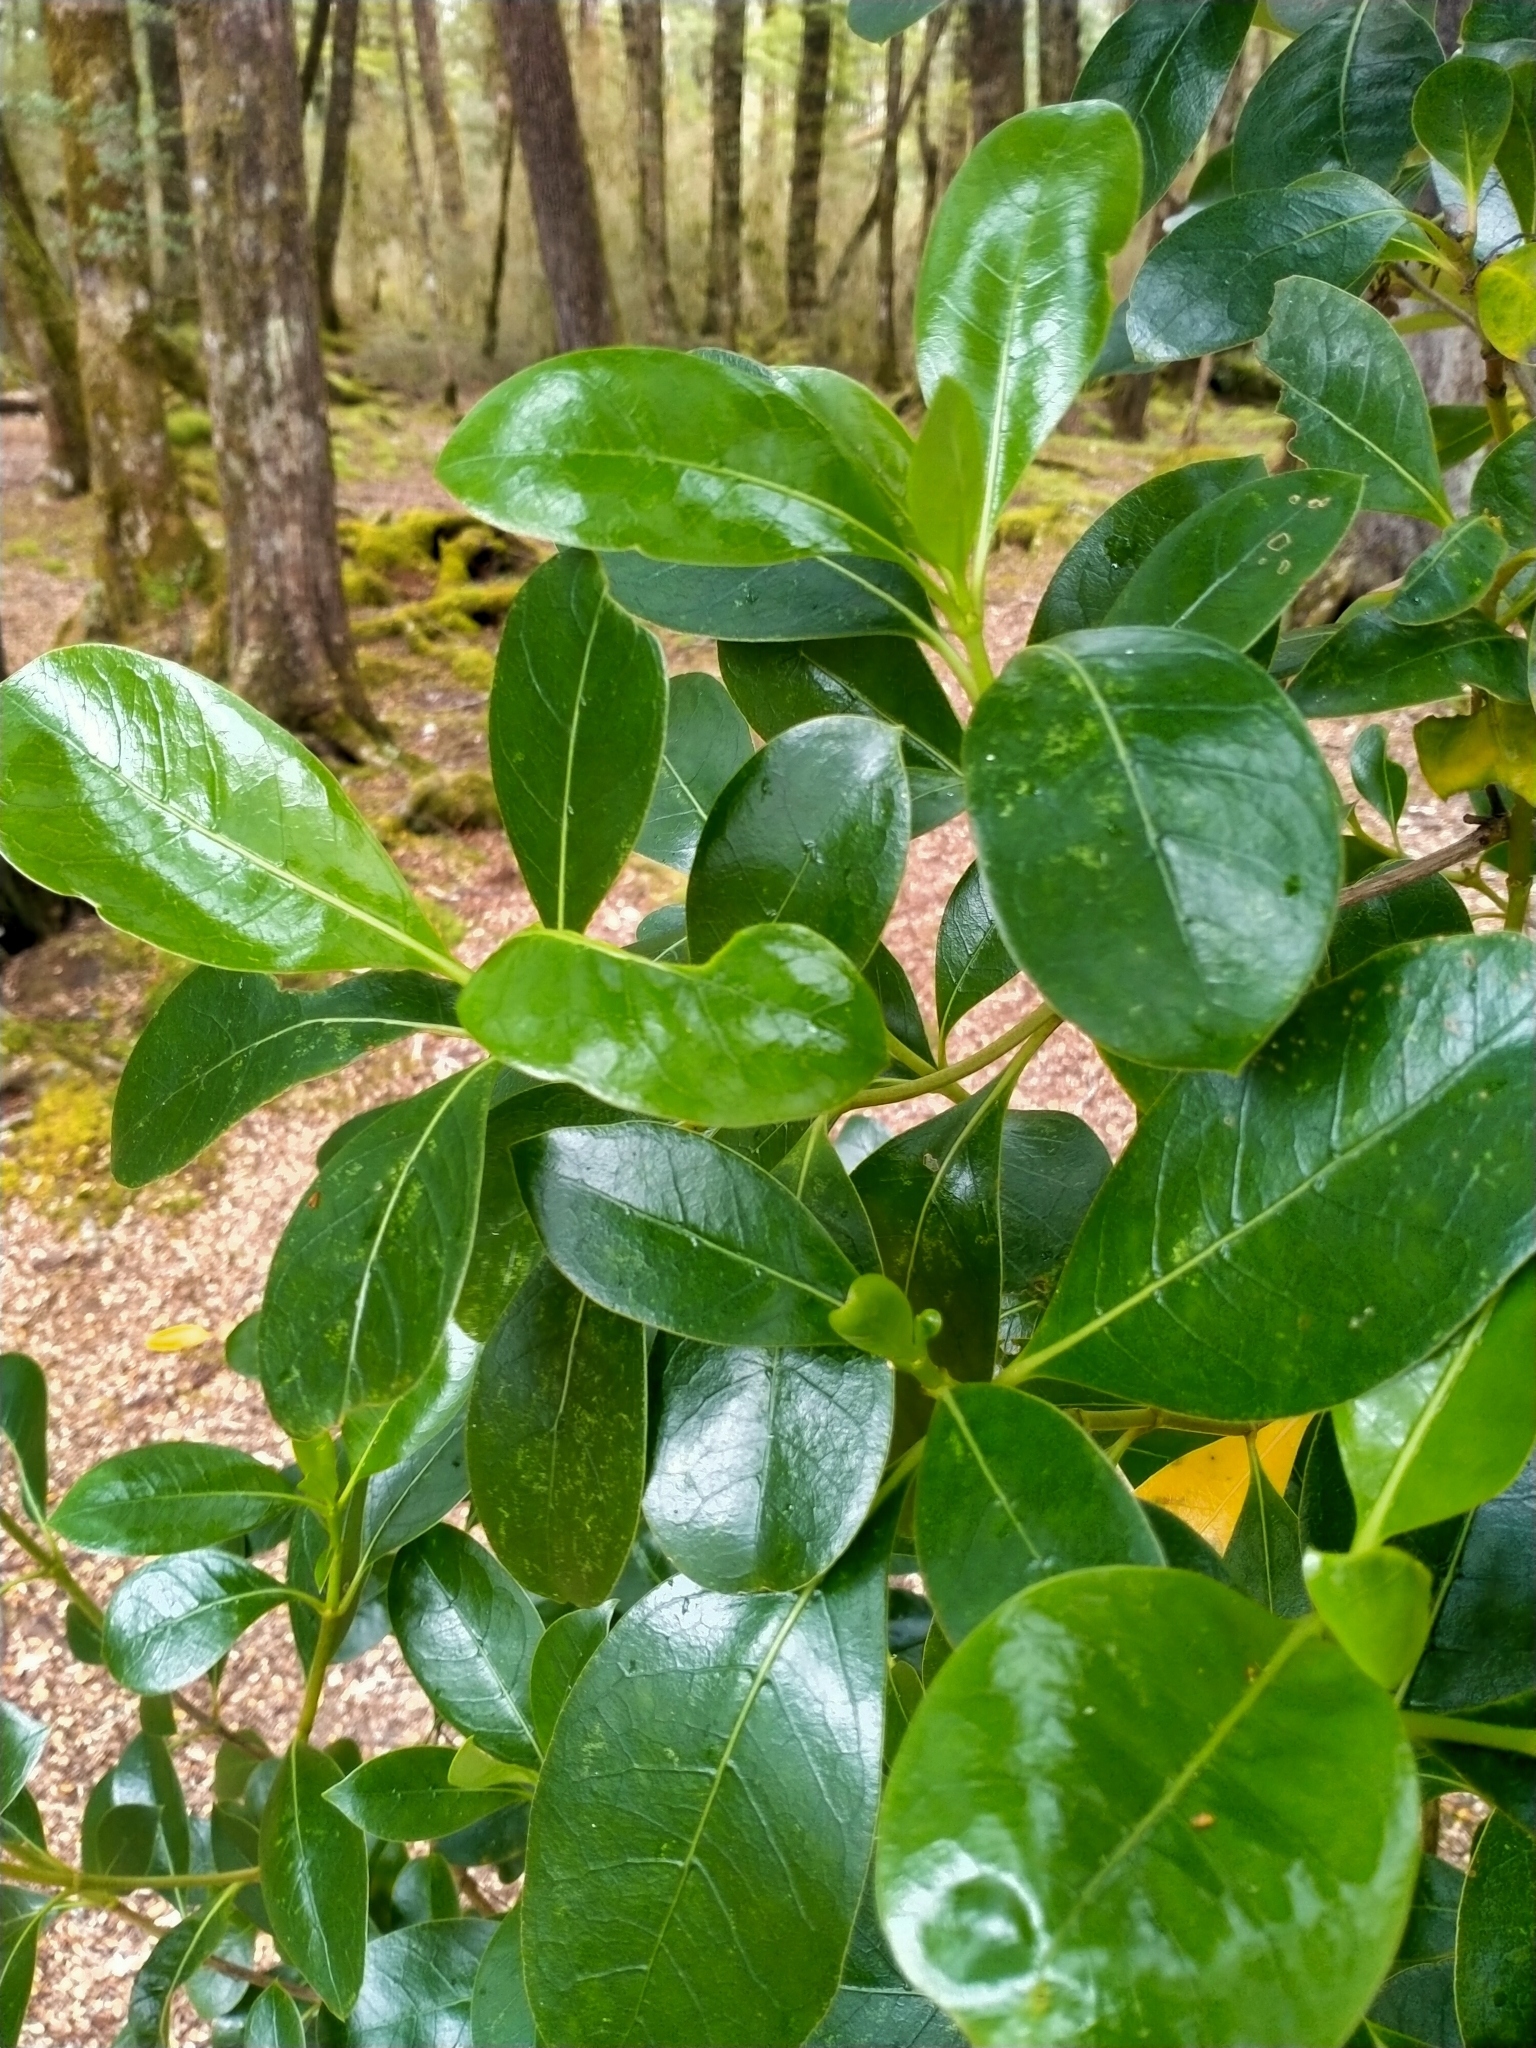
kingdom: Plantae
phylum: Tracheophyta
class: Magnoliopsida
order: Gentianales
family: Rubiaceae
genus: Coprosma
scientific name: Coprosma lucida
